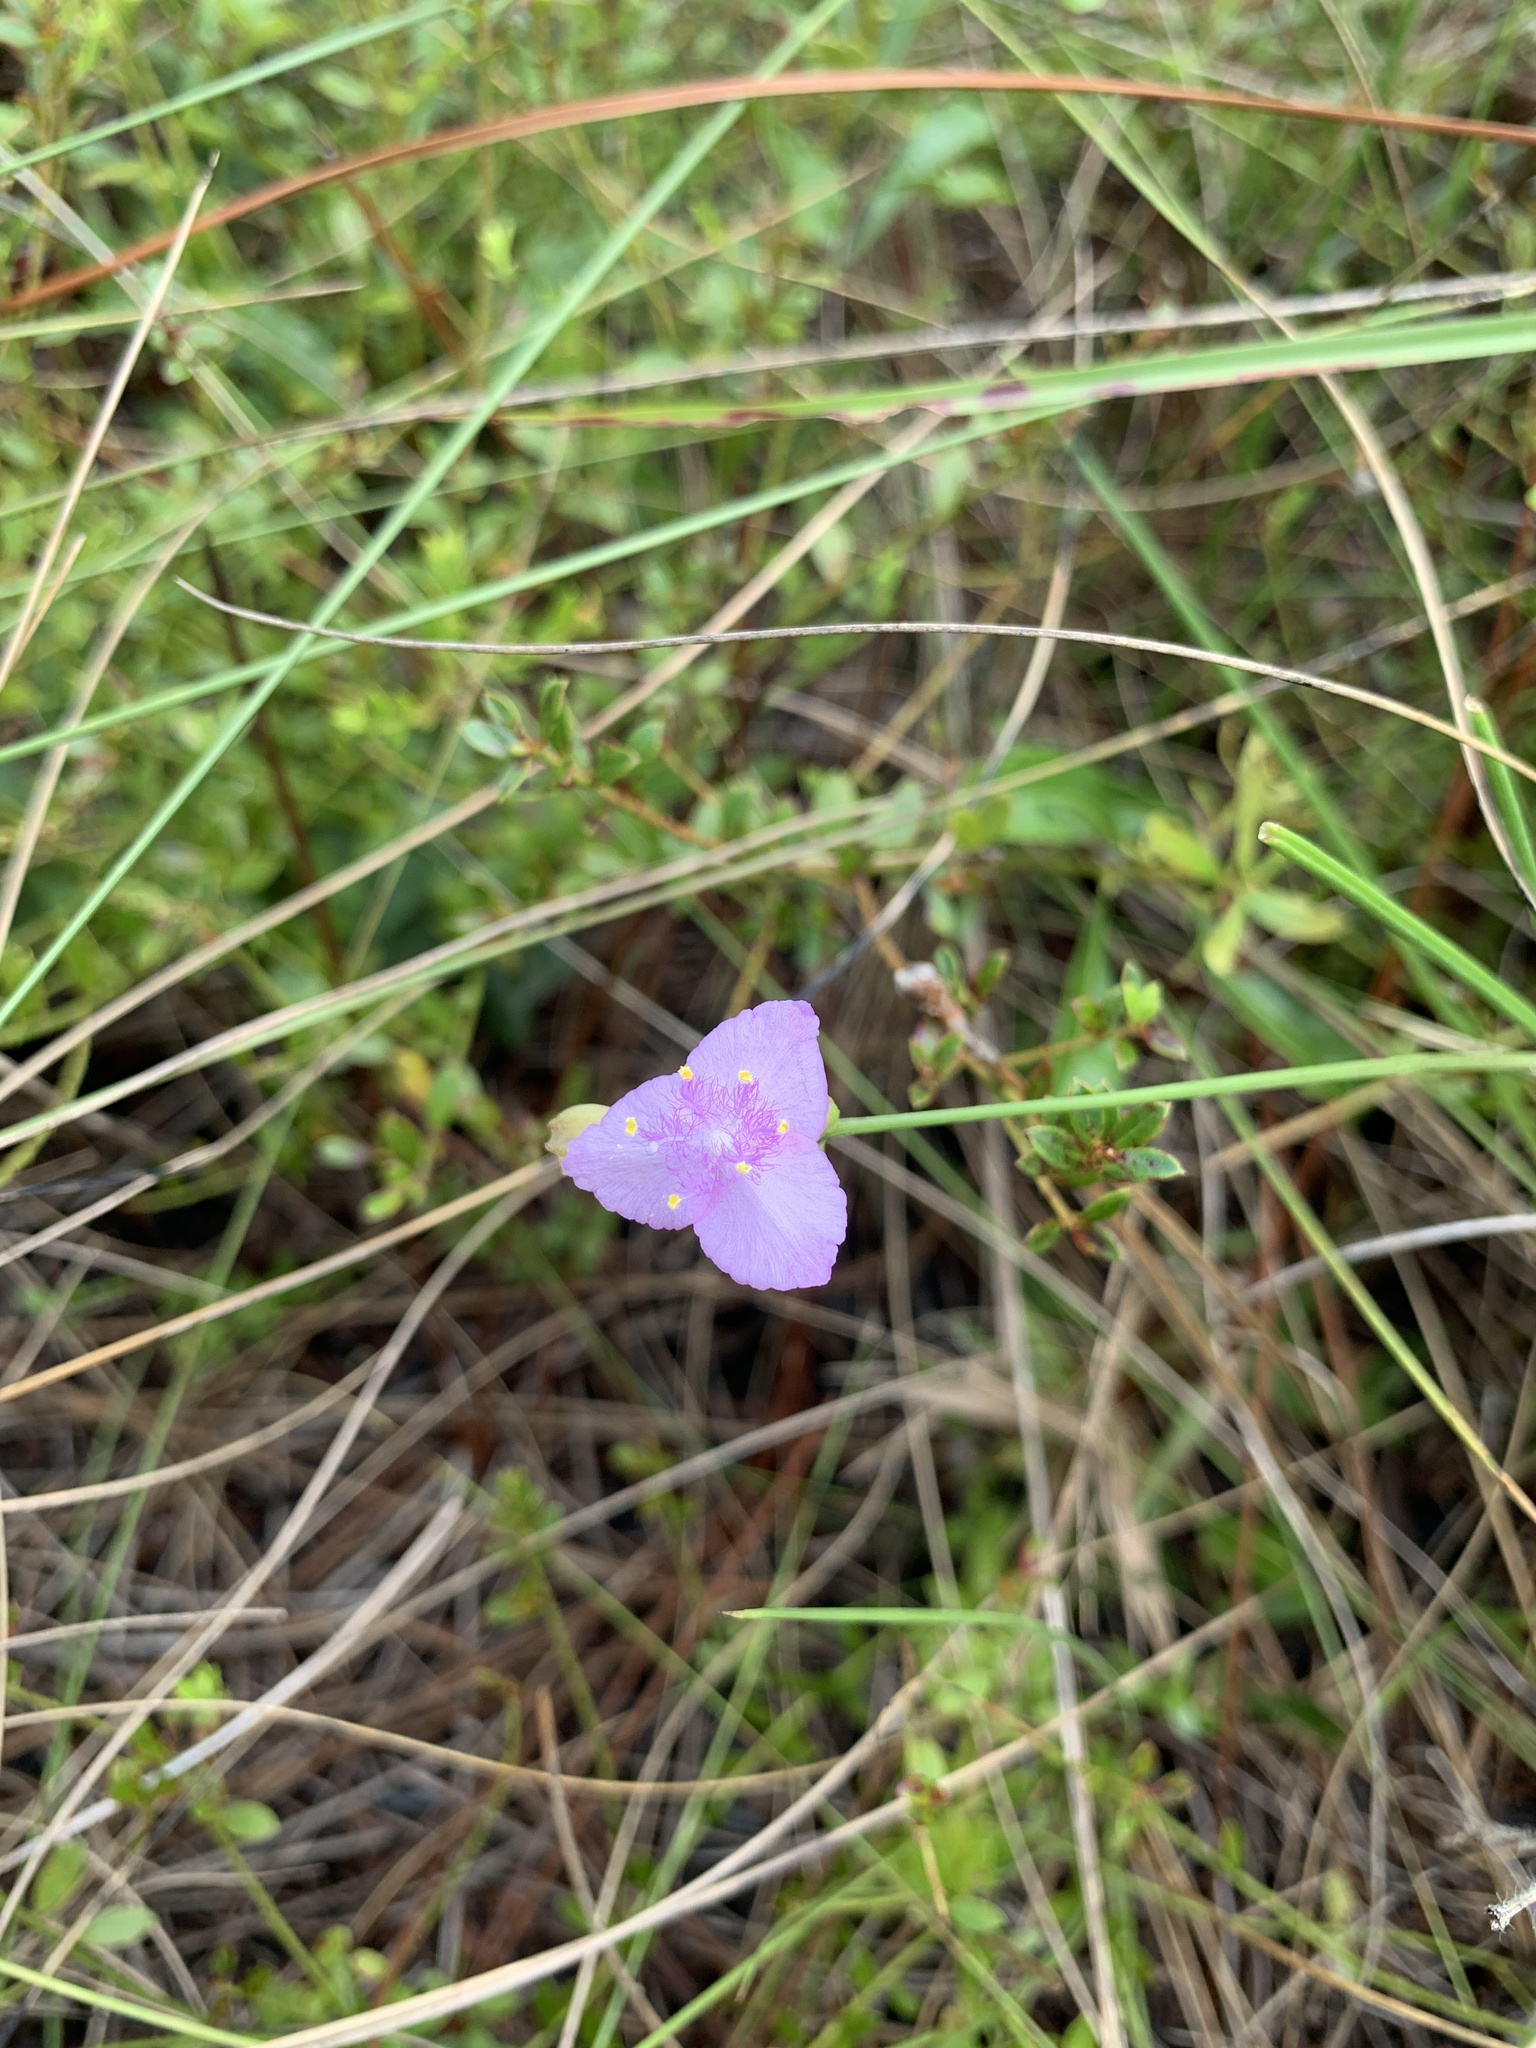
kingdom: Plantae
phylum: Tracheophyta
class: Liliopsida
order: Commelinales
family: Commelinaceae
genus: Callisia
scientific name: Callisia ornata
